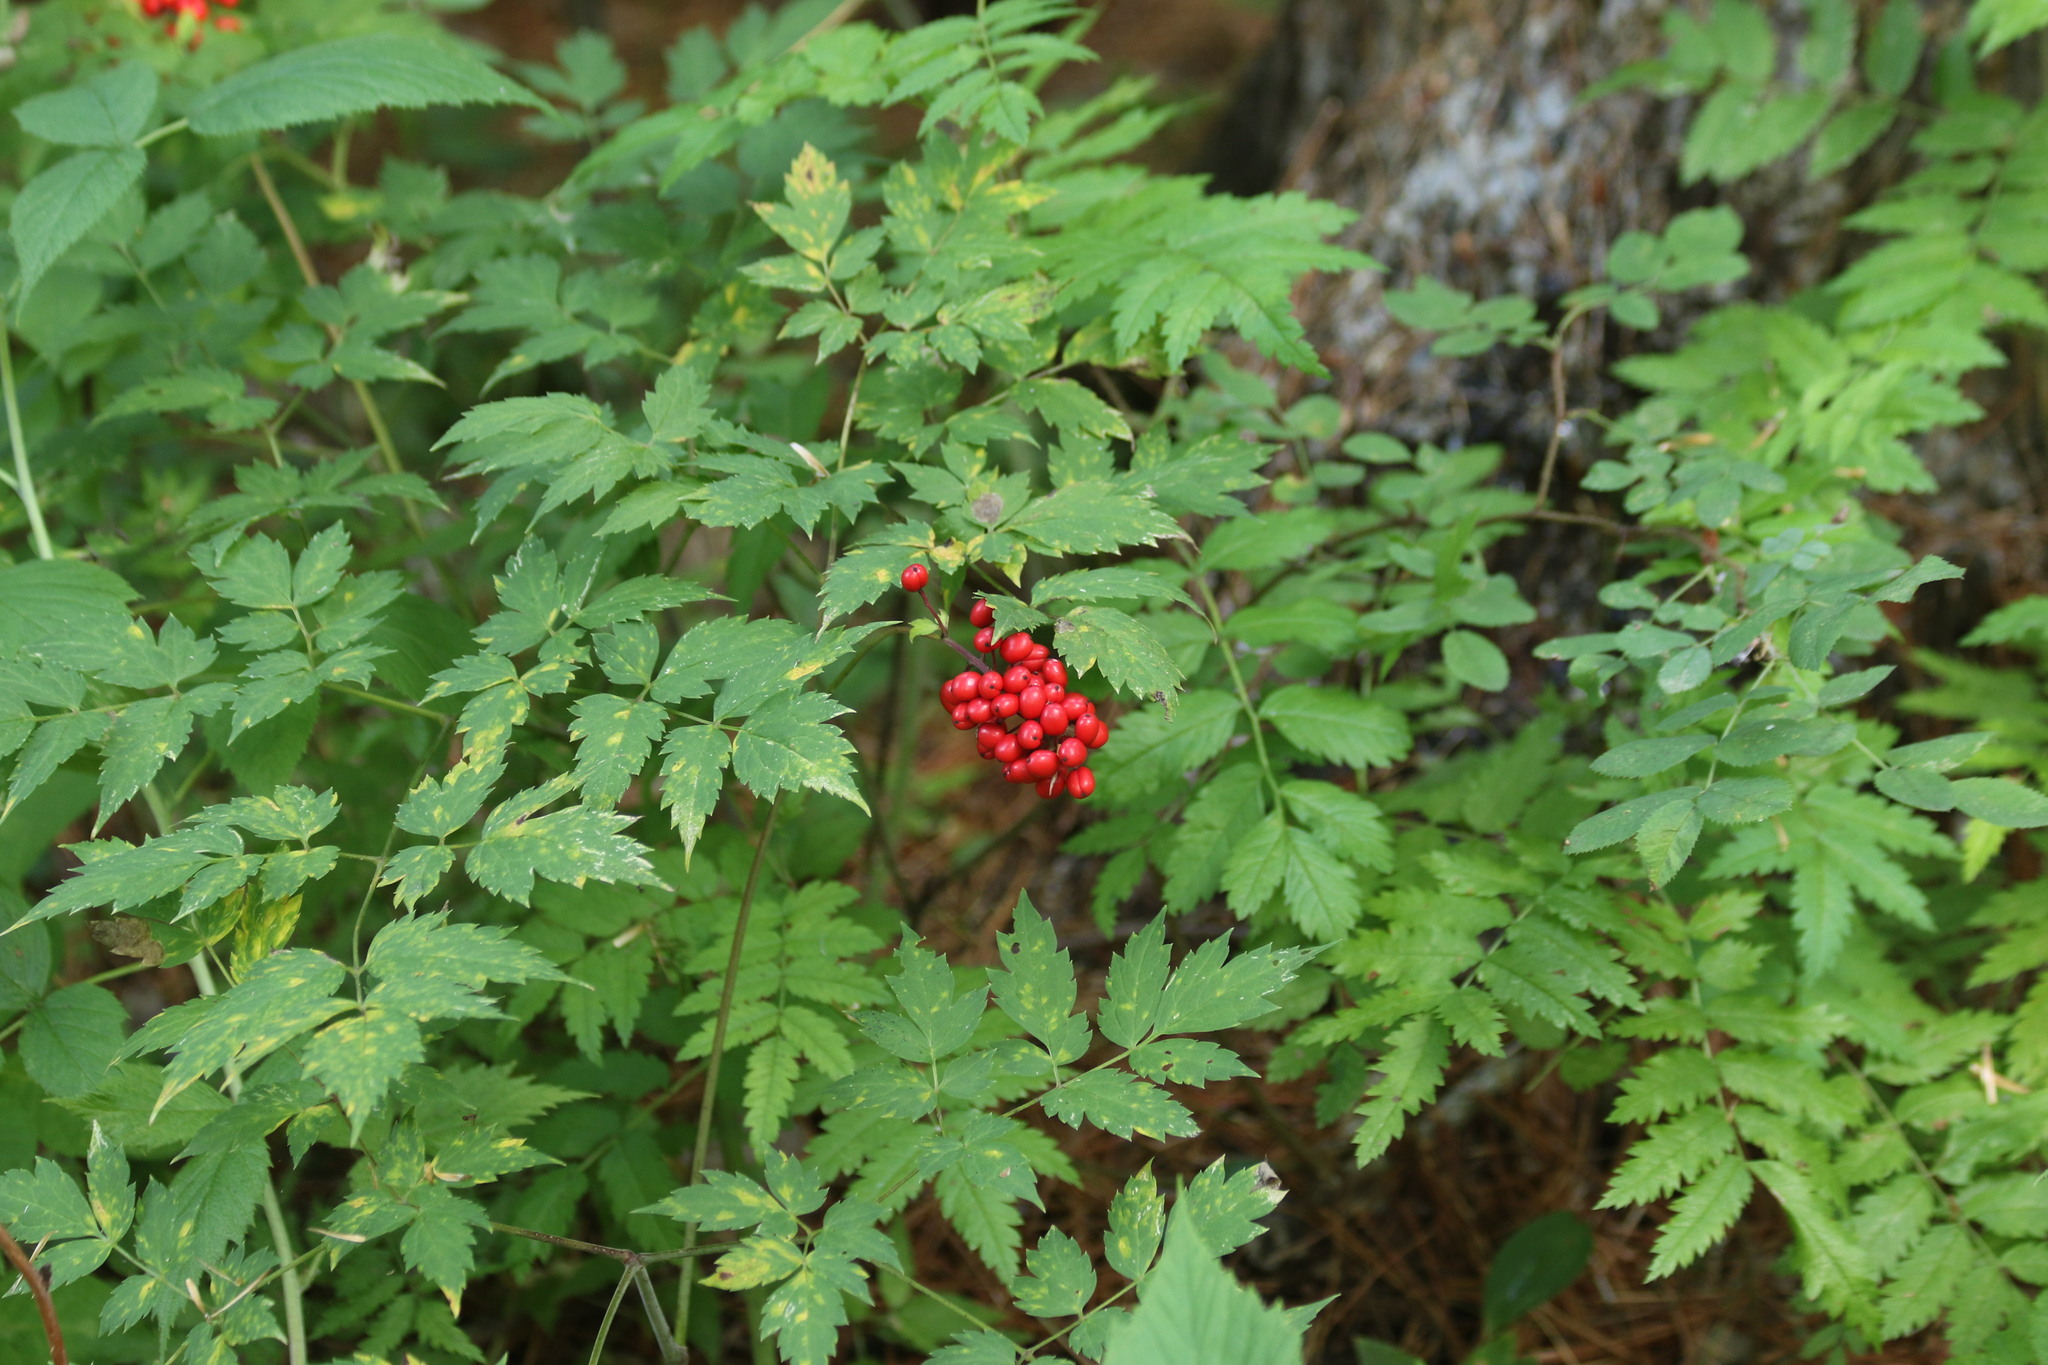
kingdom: Plantae
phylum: Tracheophyta
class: Magnoliopsida
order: Ranunculales
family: Ranunculaceae
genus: Actaea
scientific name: Actaea erythrocarpa
